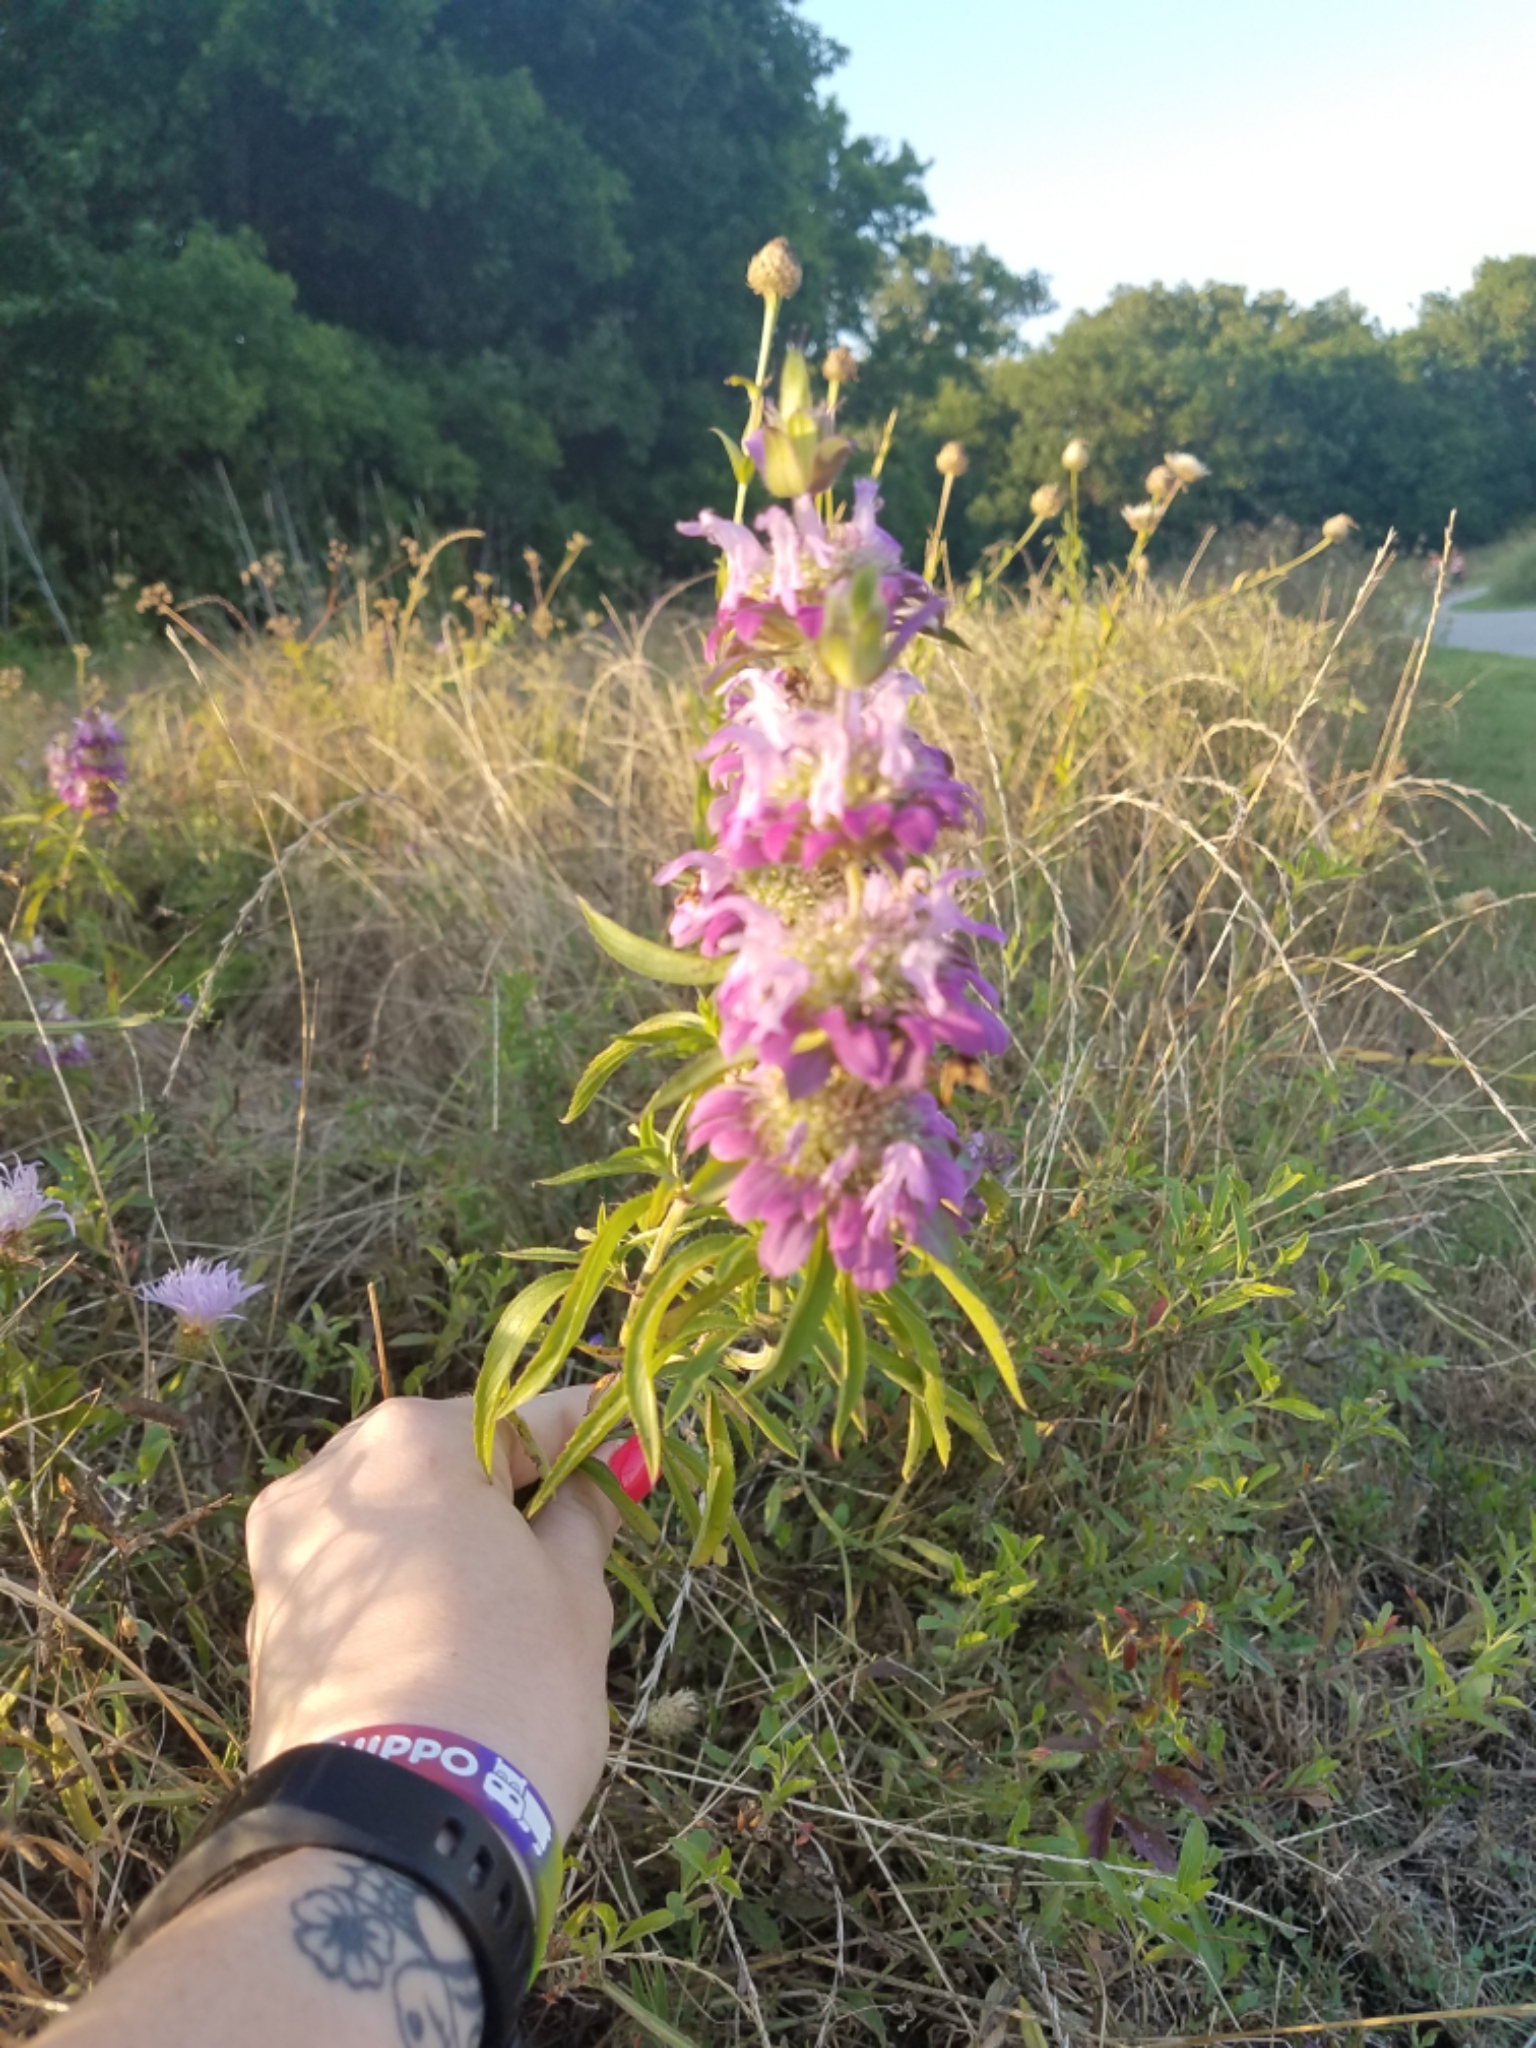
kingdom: Plantae
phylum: Tracheophyta
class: Magnoliopsida
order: Lamiales
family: Lamiaceae
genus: Monarda
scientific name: Monarda citriodora
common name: Lemon beebalm
